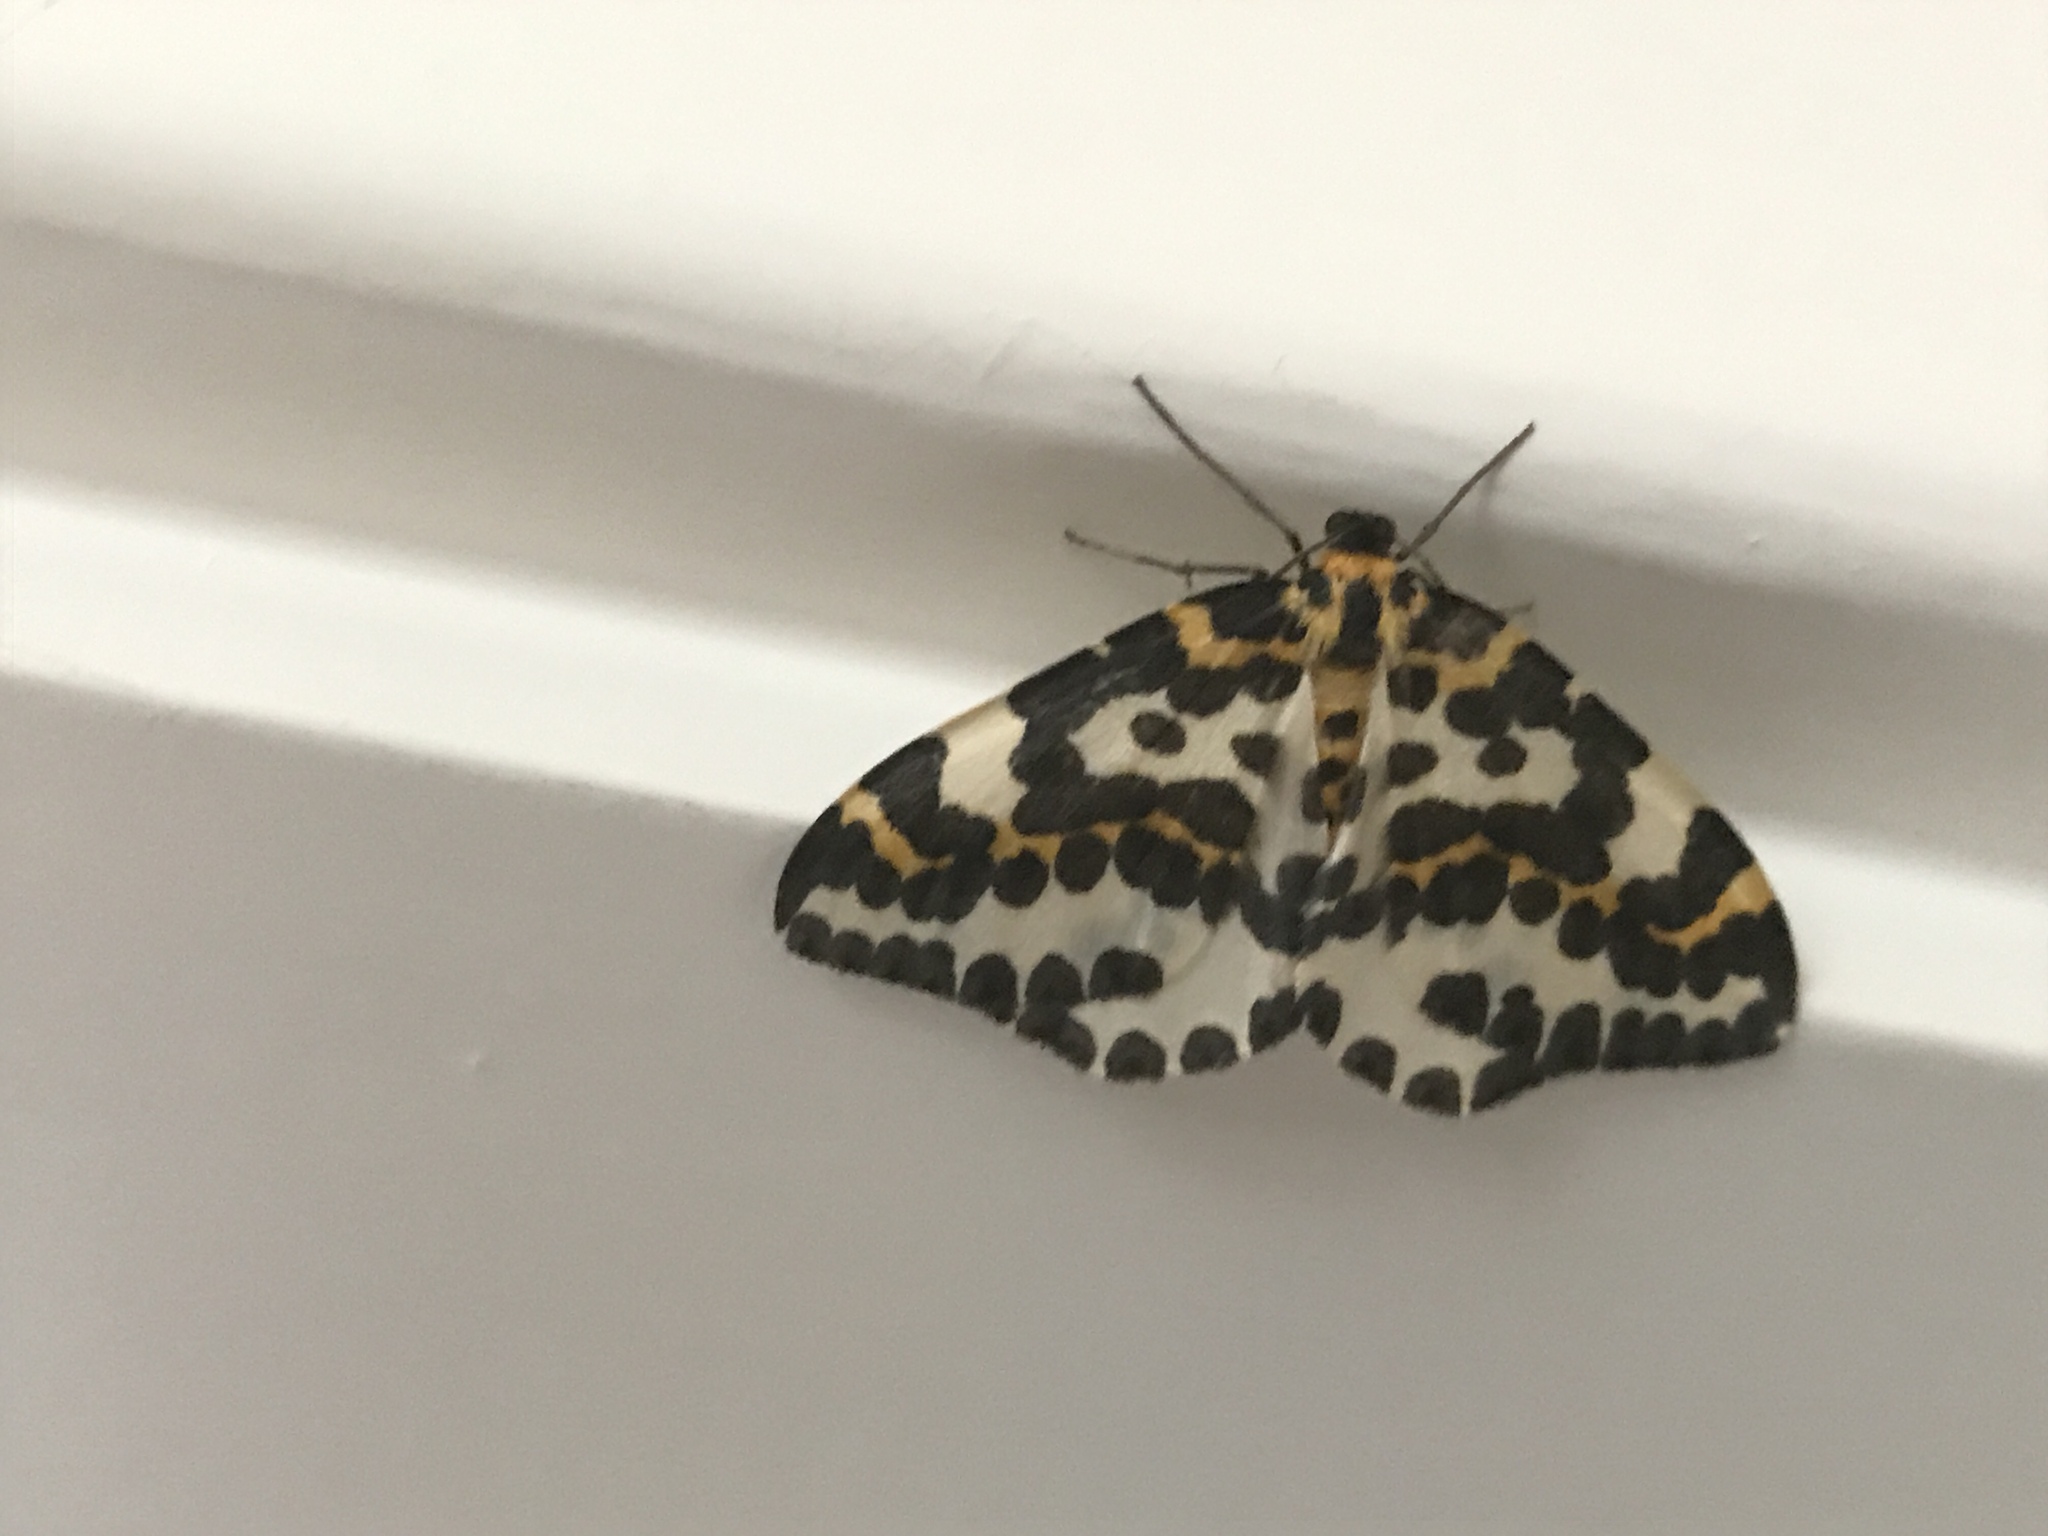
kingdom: Animalia
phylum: Arthropoda
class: Insecta
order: Lepidoptera
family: Geometridae
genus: Abraxas
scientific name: Abraxas grossulariata
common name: Magpie
